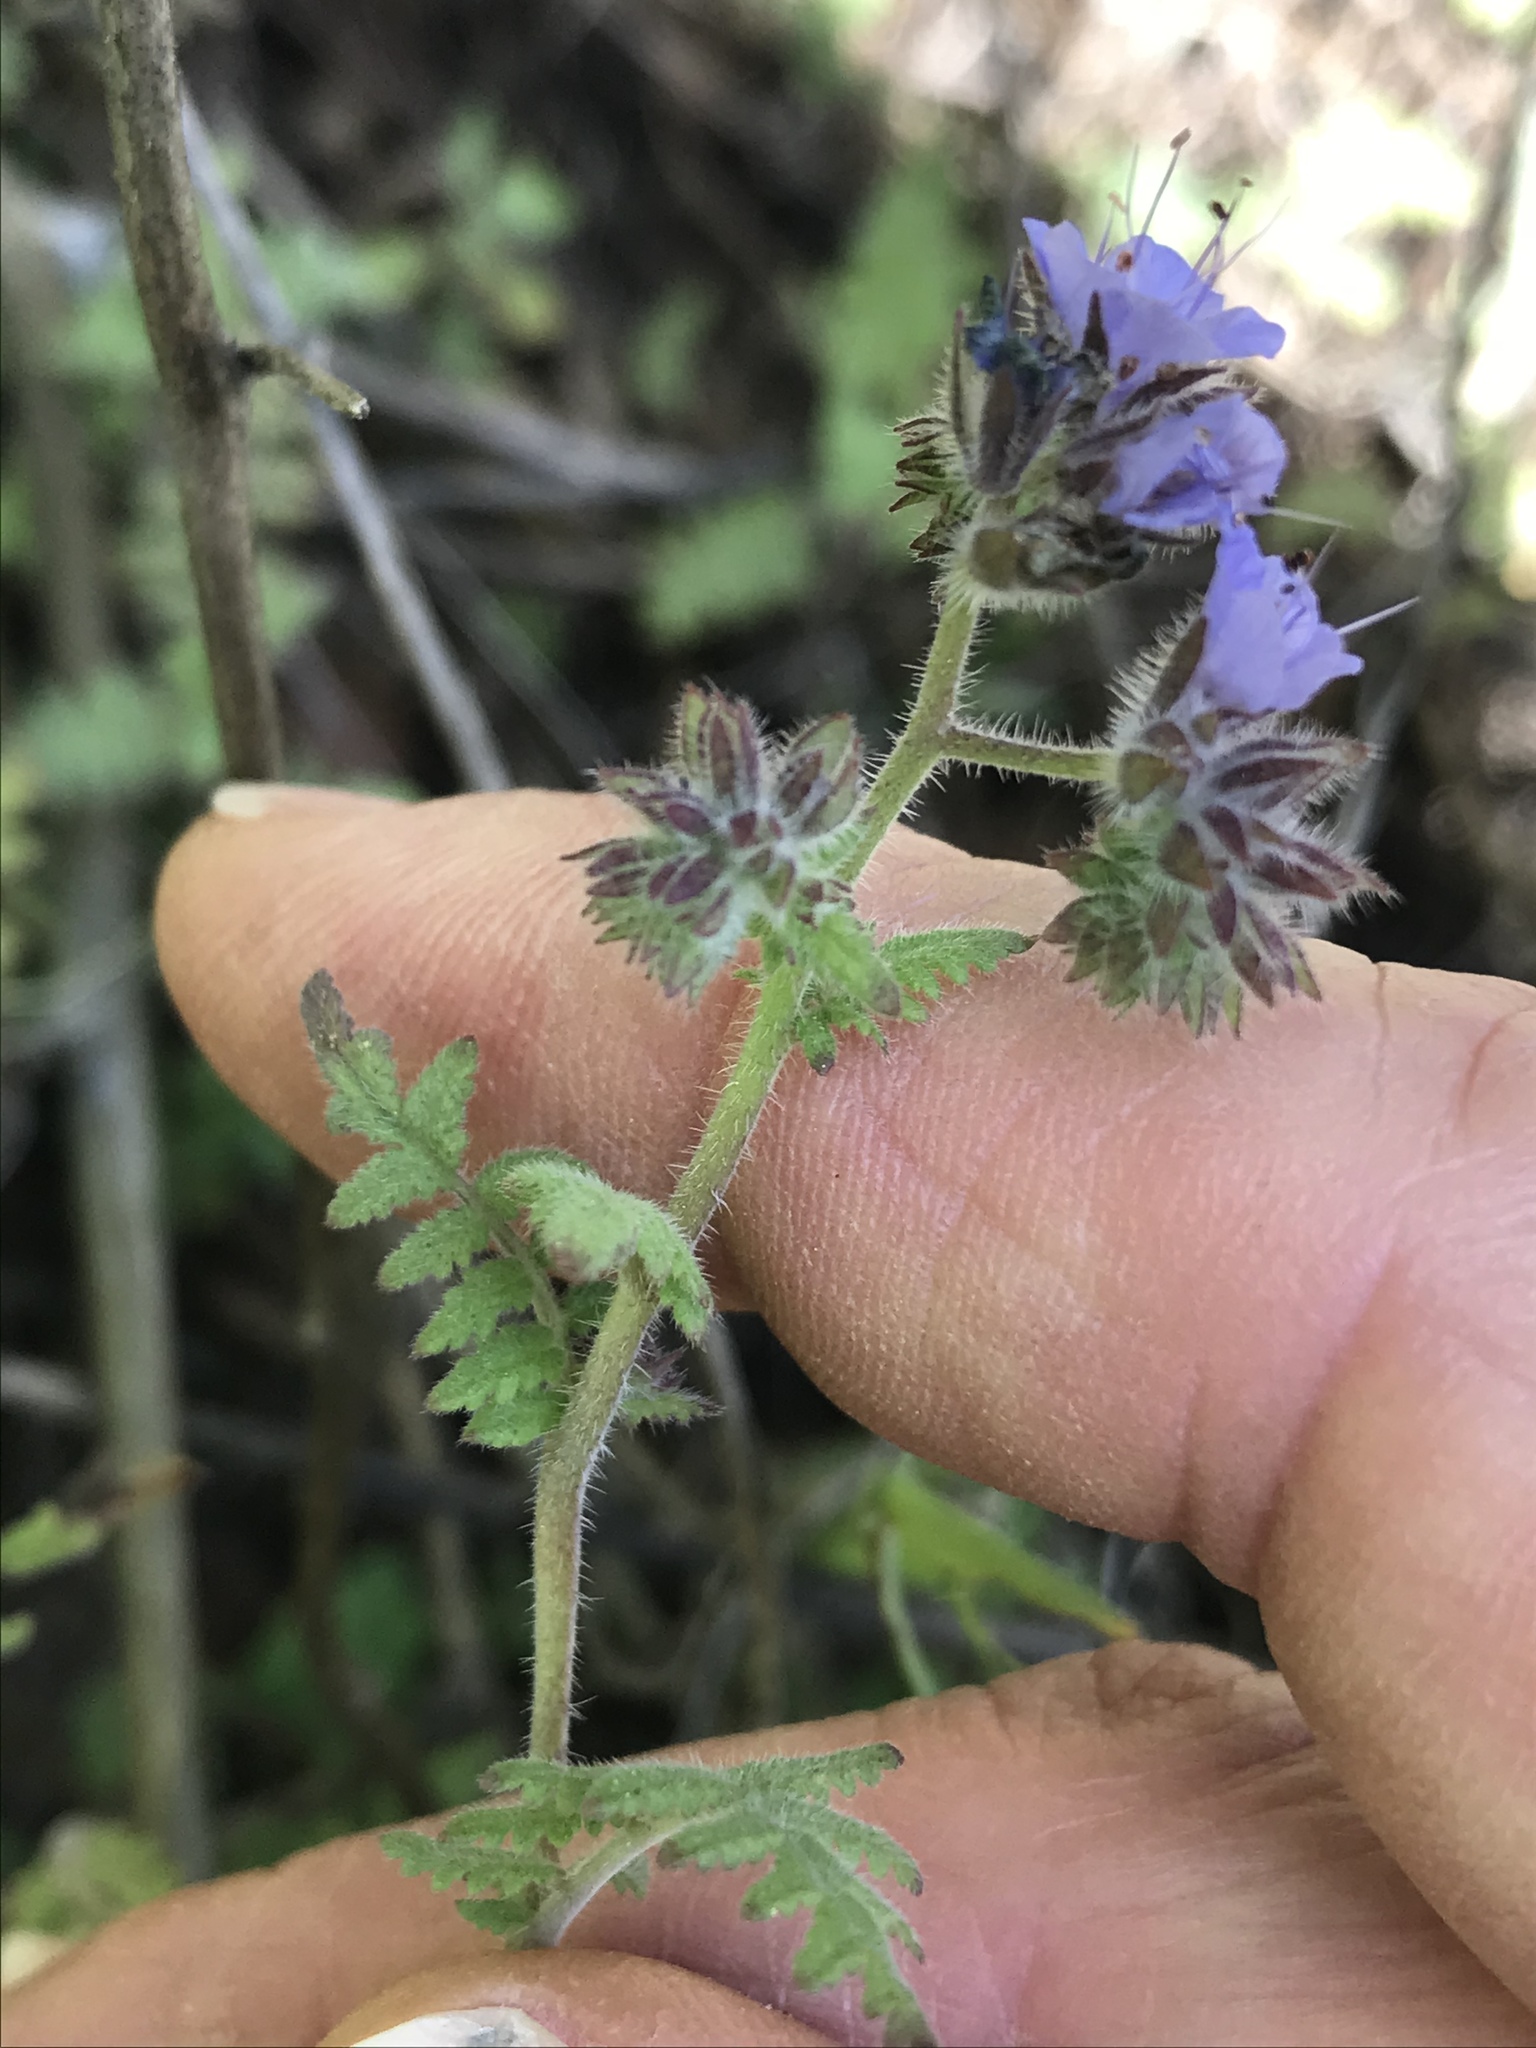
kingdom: Plantae
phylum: Tracheophyta
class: Magnoliopsida
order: Boraginales
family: Hydrophyllaceae
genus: Phacelia
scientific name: Phacelia distans
